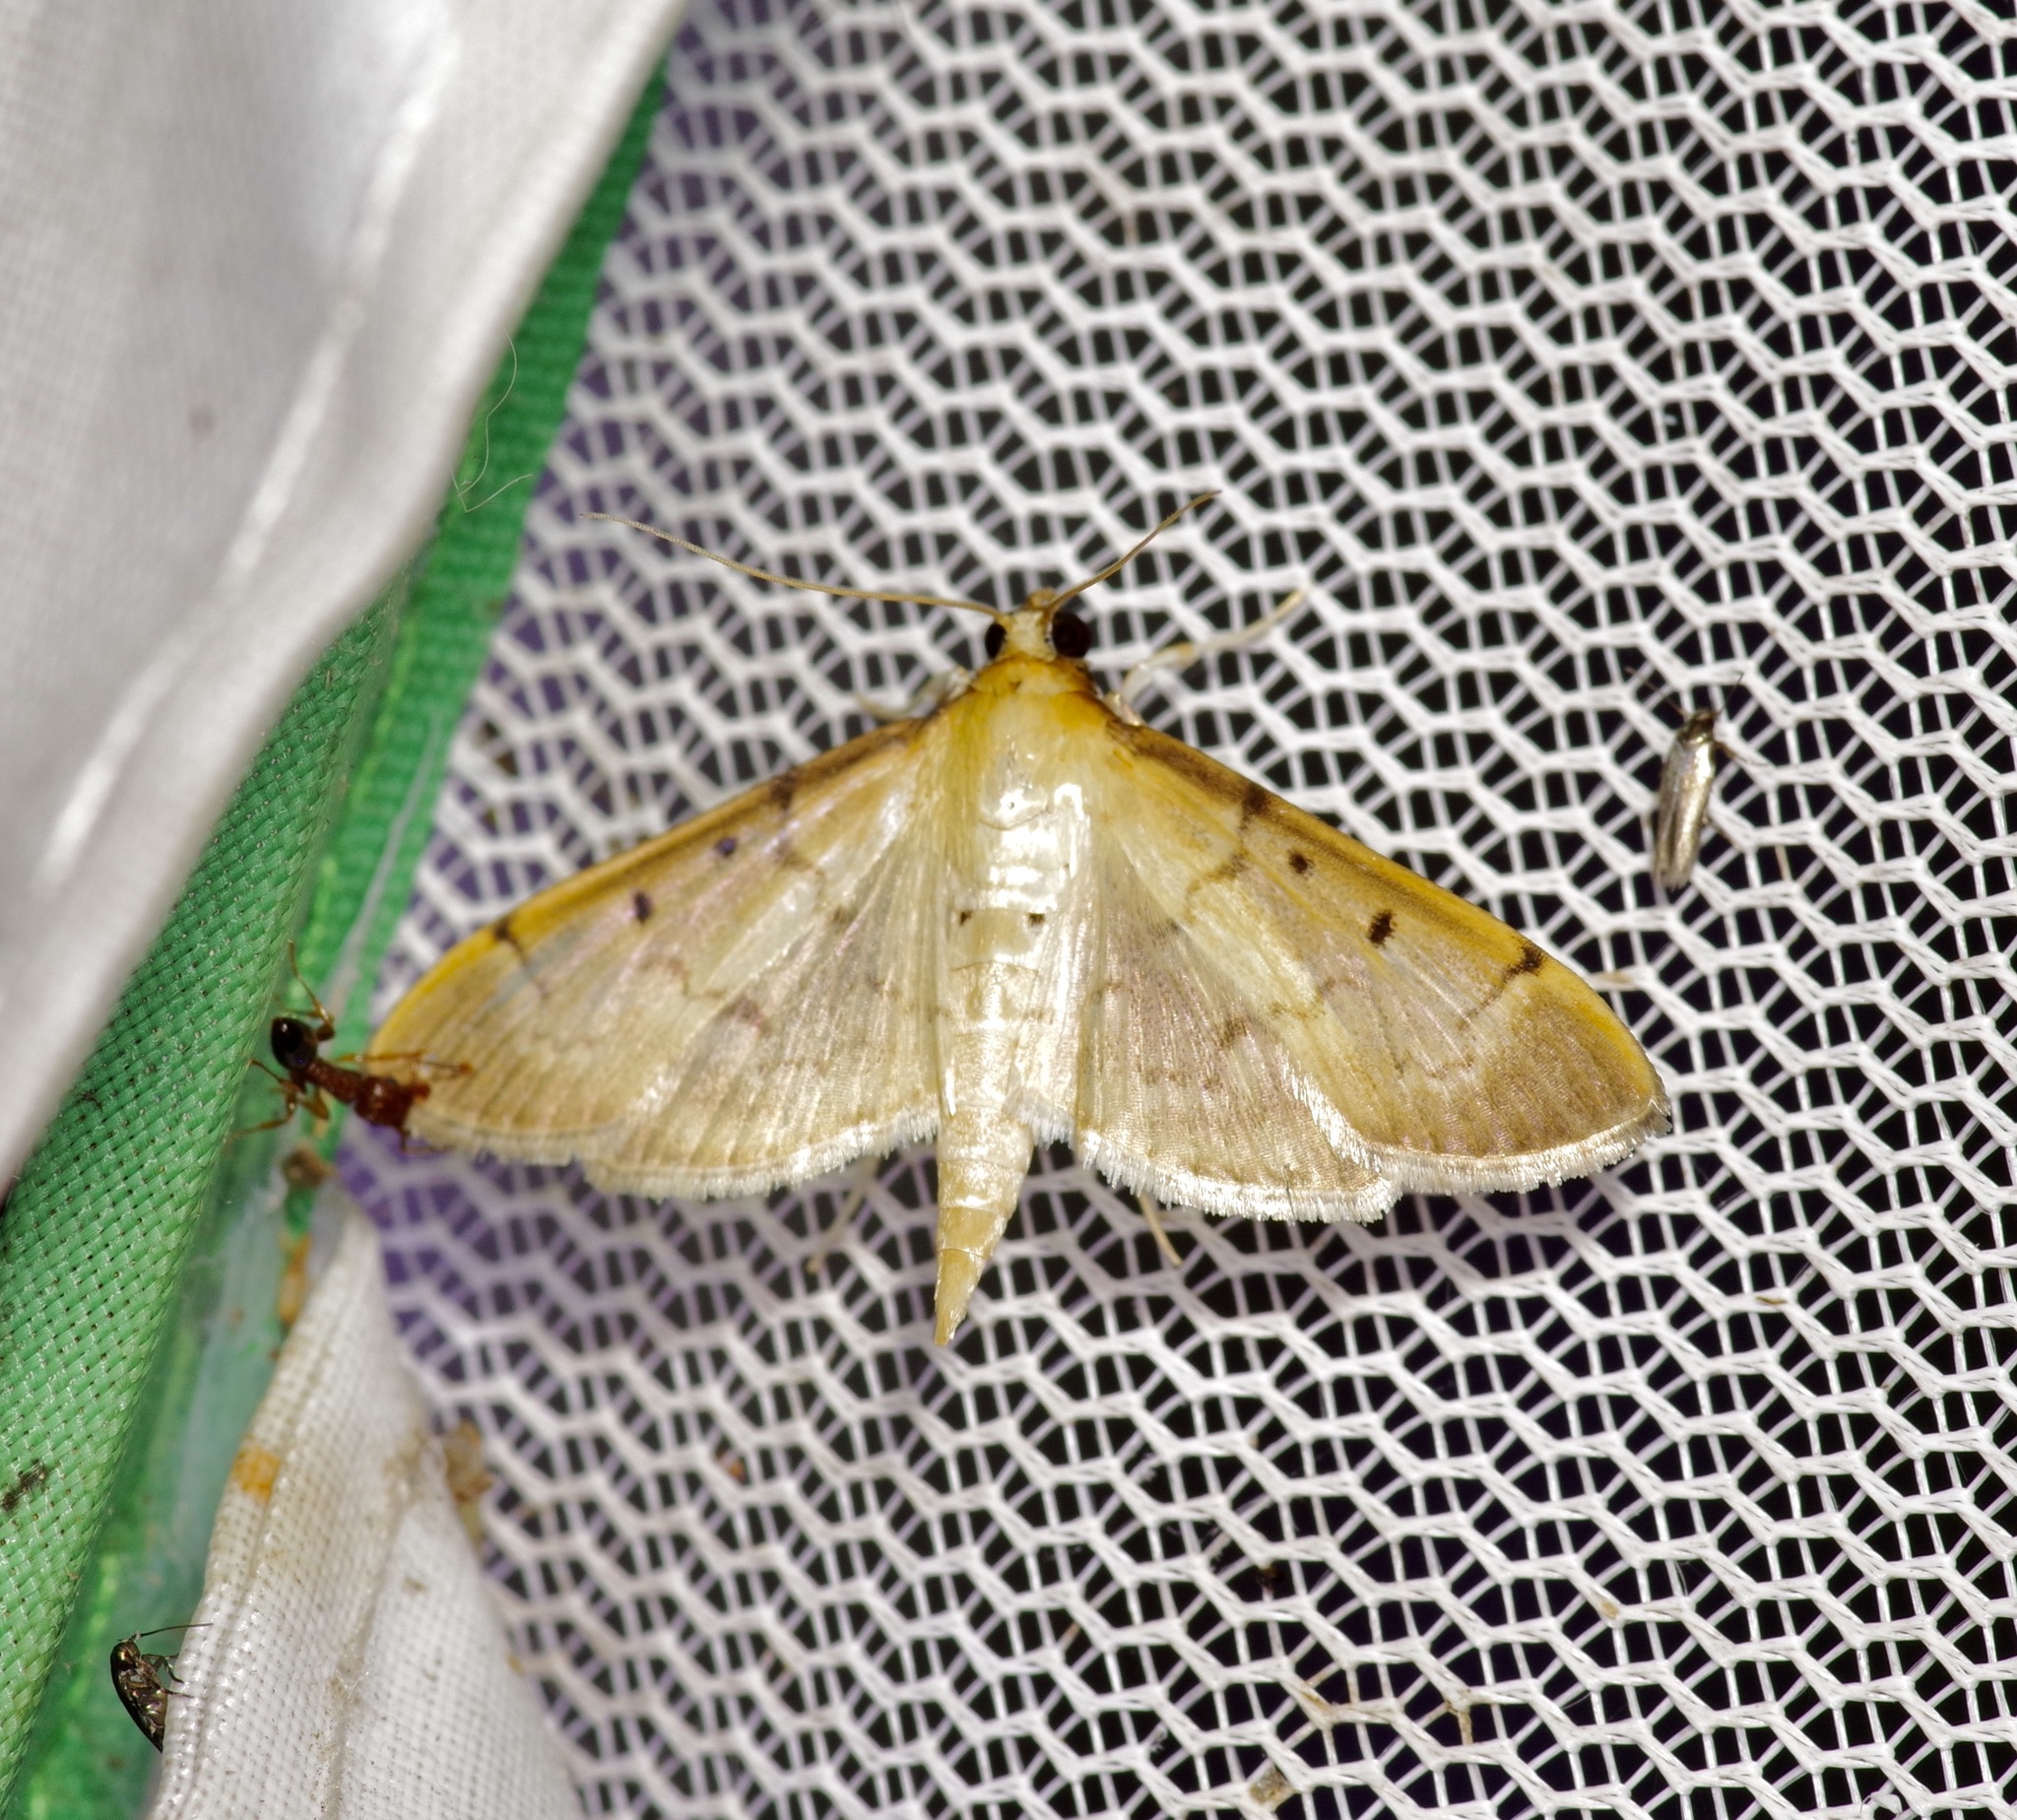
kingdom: Animalia
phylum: Arthropoda
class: Insecta
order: Lepidoptera
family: Crambidae
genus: Herpetogramma
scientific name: Herpetogramma bipunctalis
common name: Southern beet webworm
